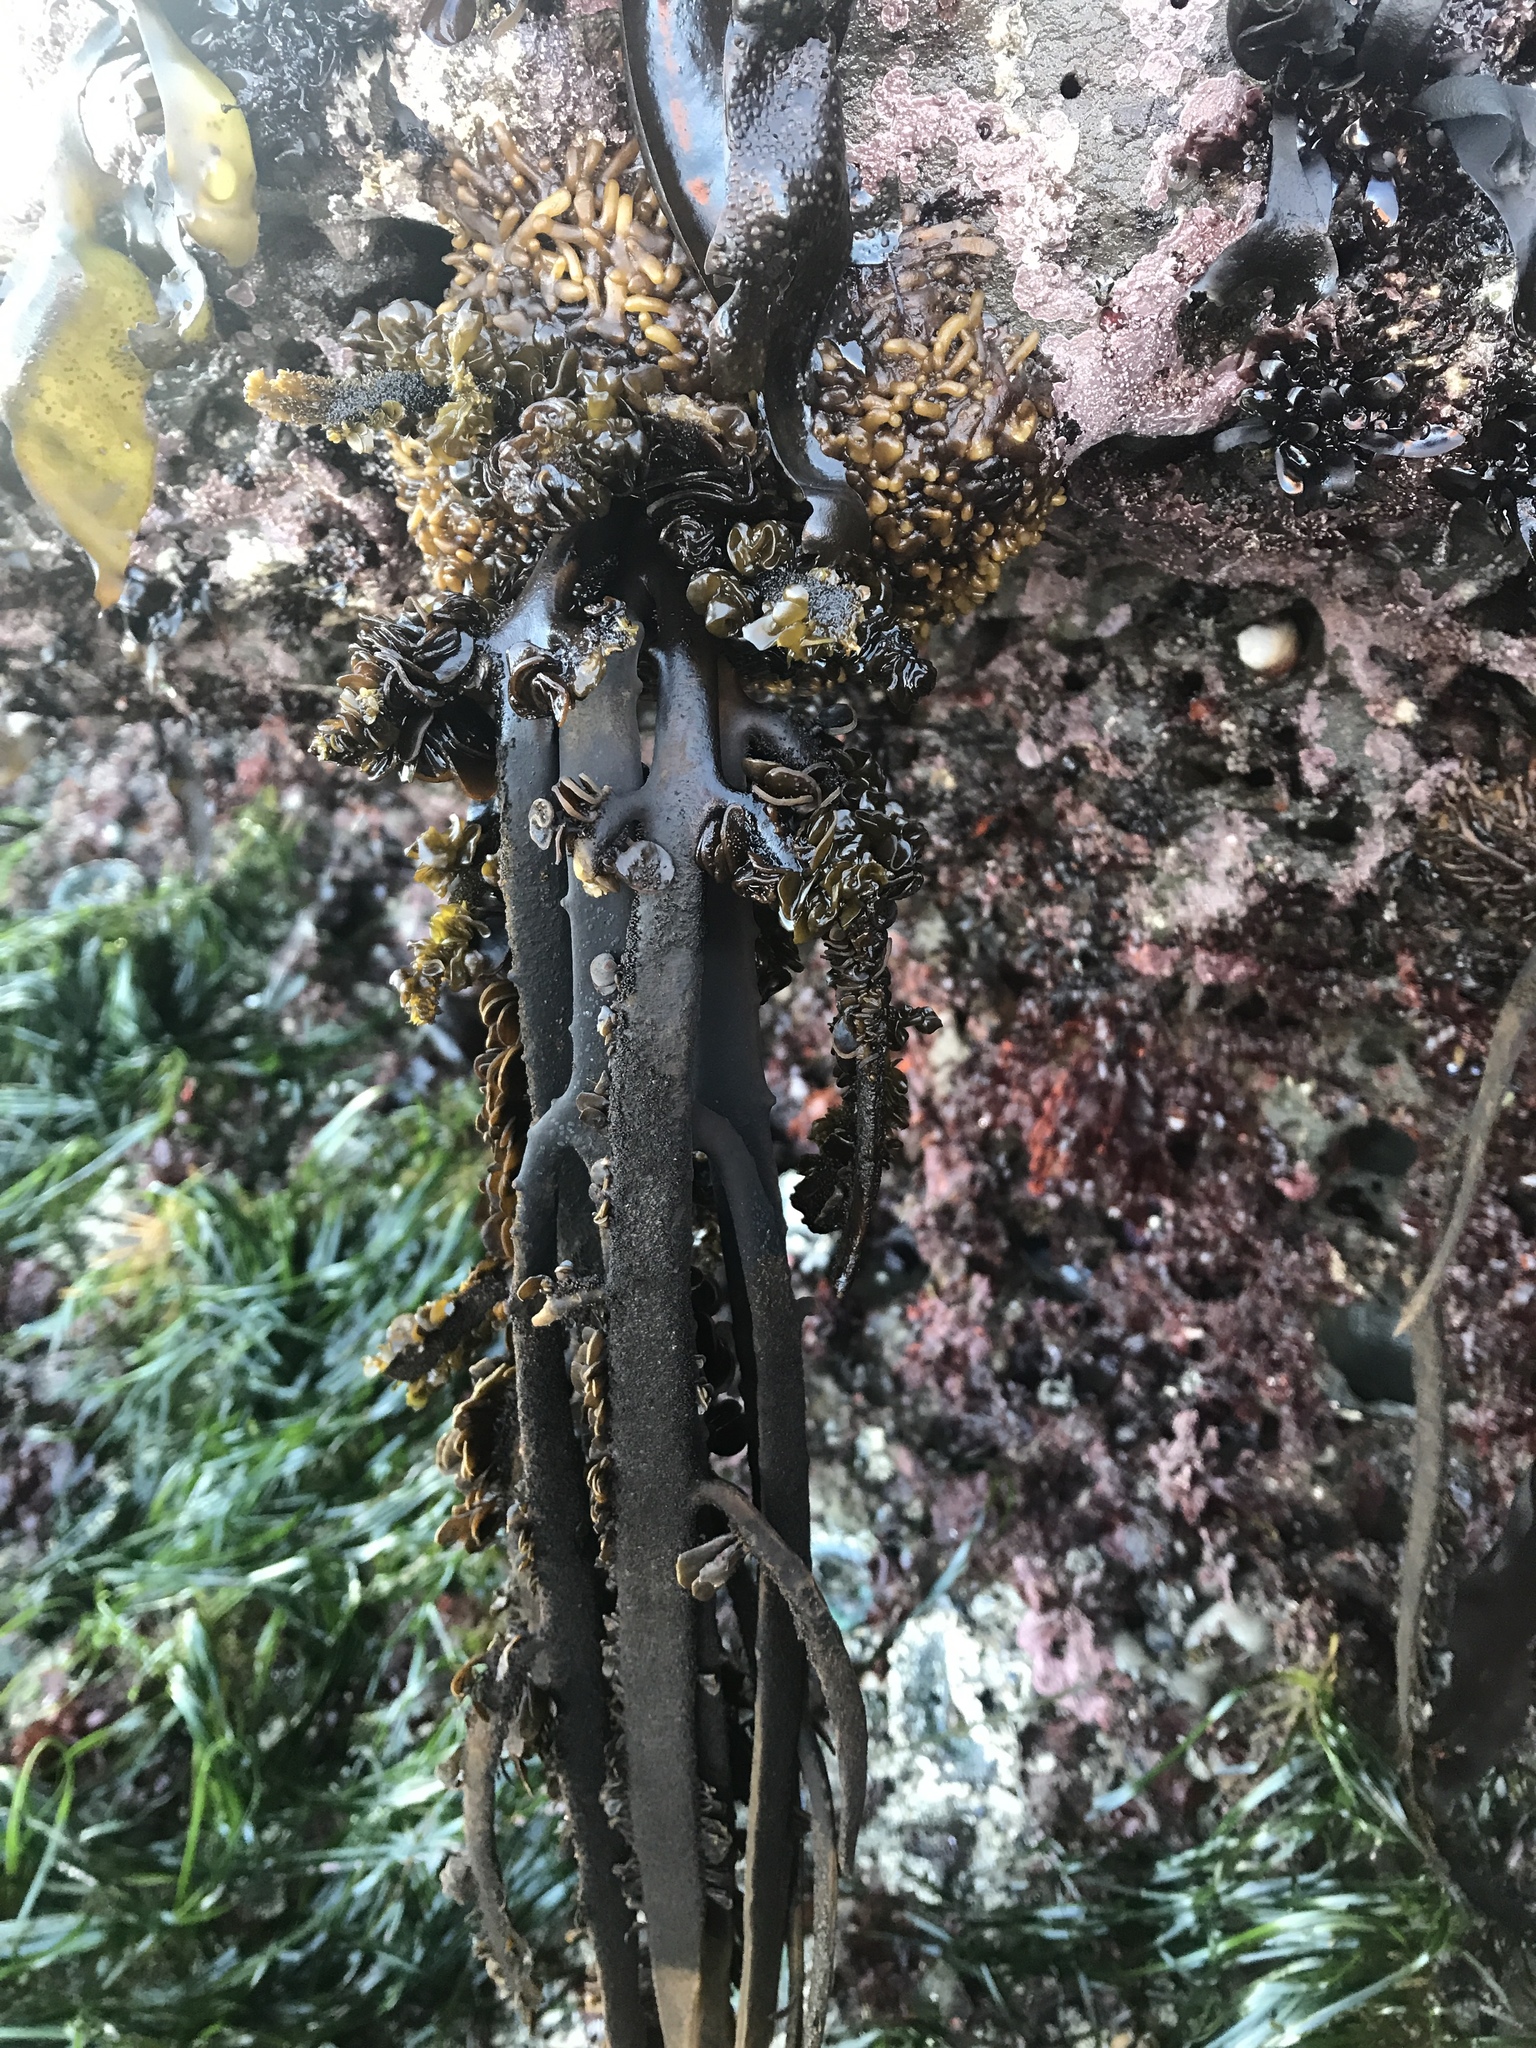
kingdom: Chromista
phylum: Ochrophyta
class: Phaeophyceae
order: Laminariales
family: Lessoniaceae
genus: Egregia
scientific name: Egregia menziesii
